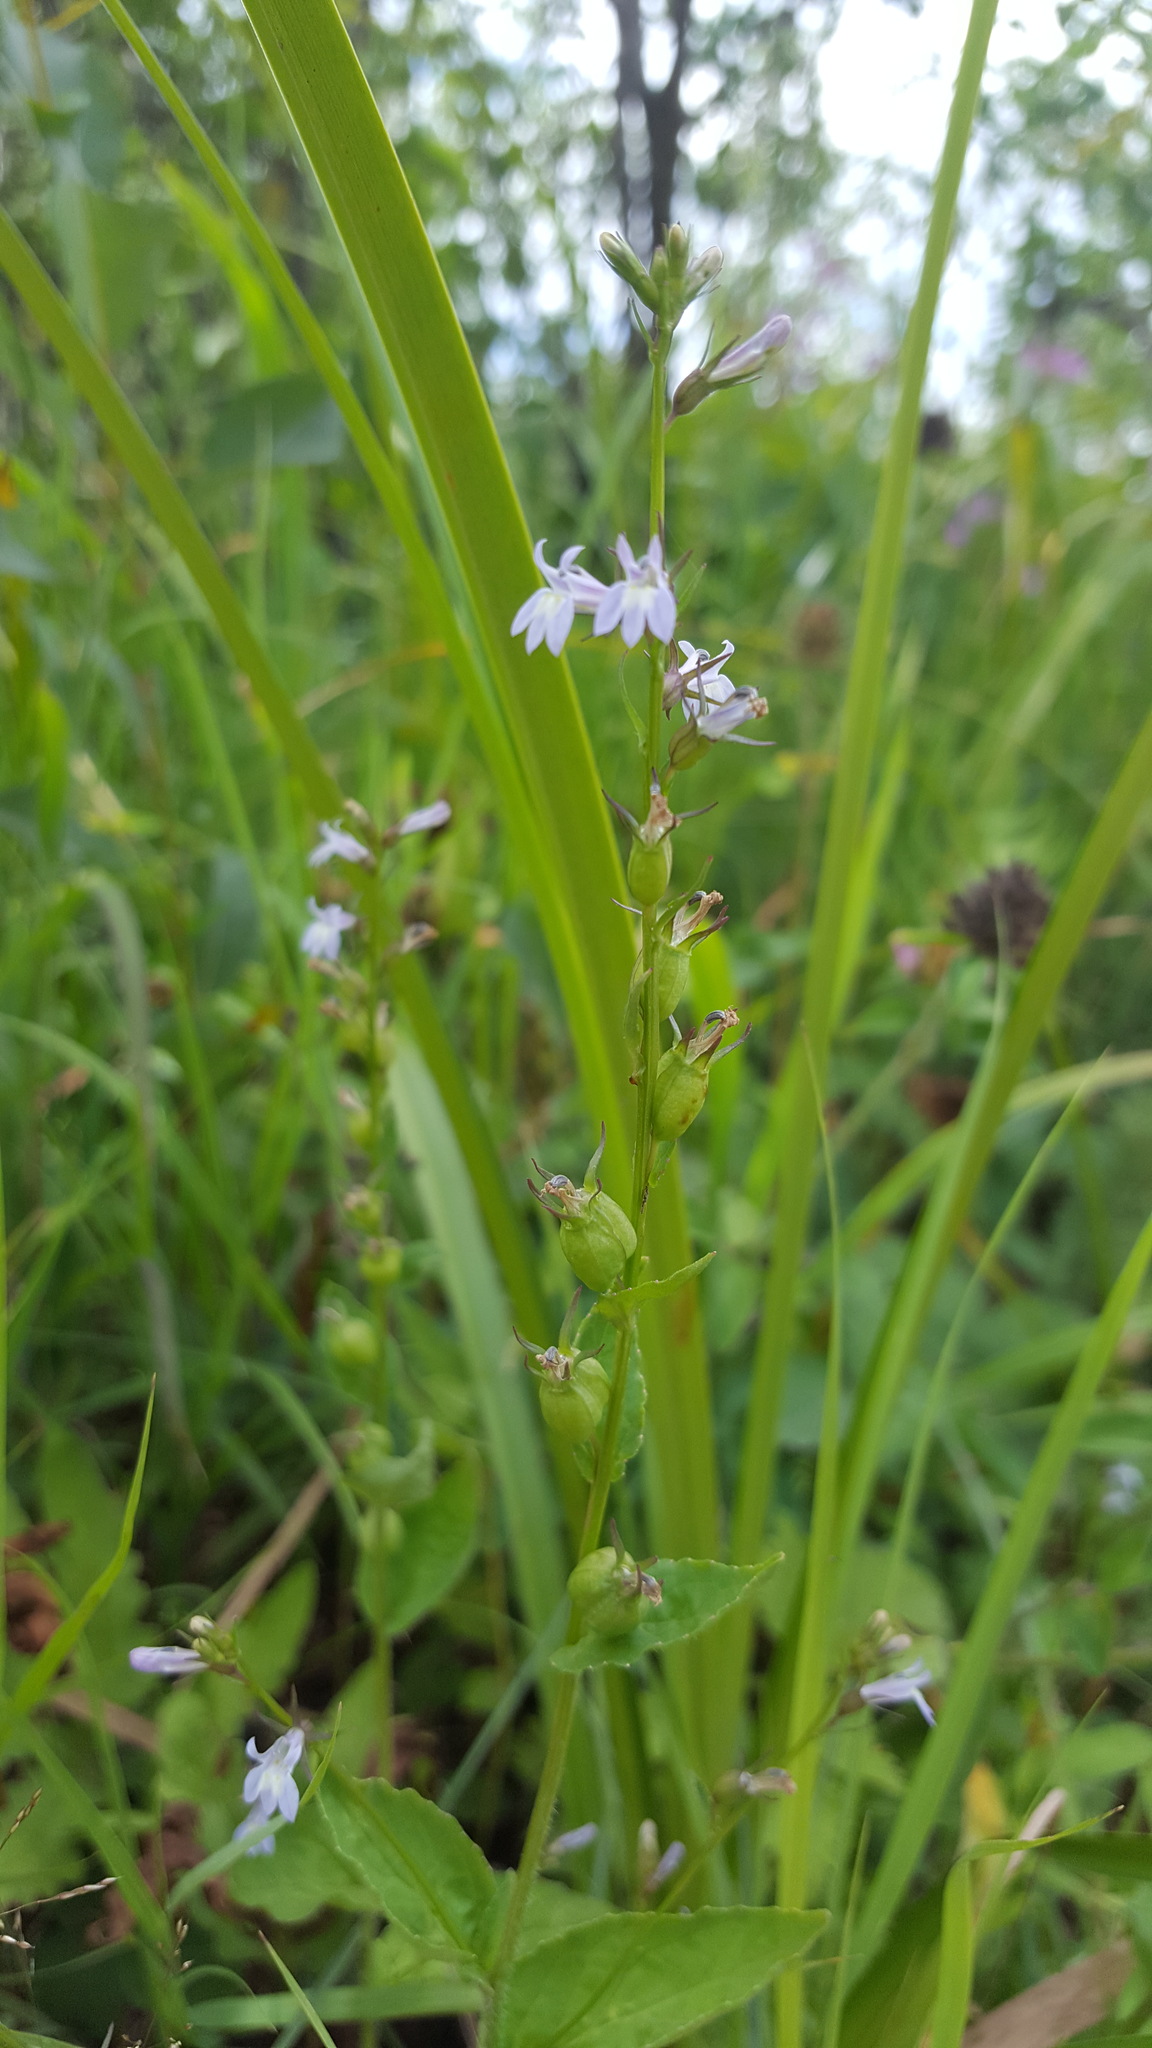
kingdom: Plantae
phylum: Tracheophyta
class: Magnoliopsida
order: Asterales
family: Campanulaceae
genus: Lobelia
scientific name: Lobelia inflata
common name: Indian tobacco
